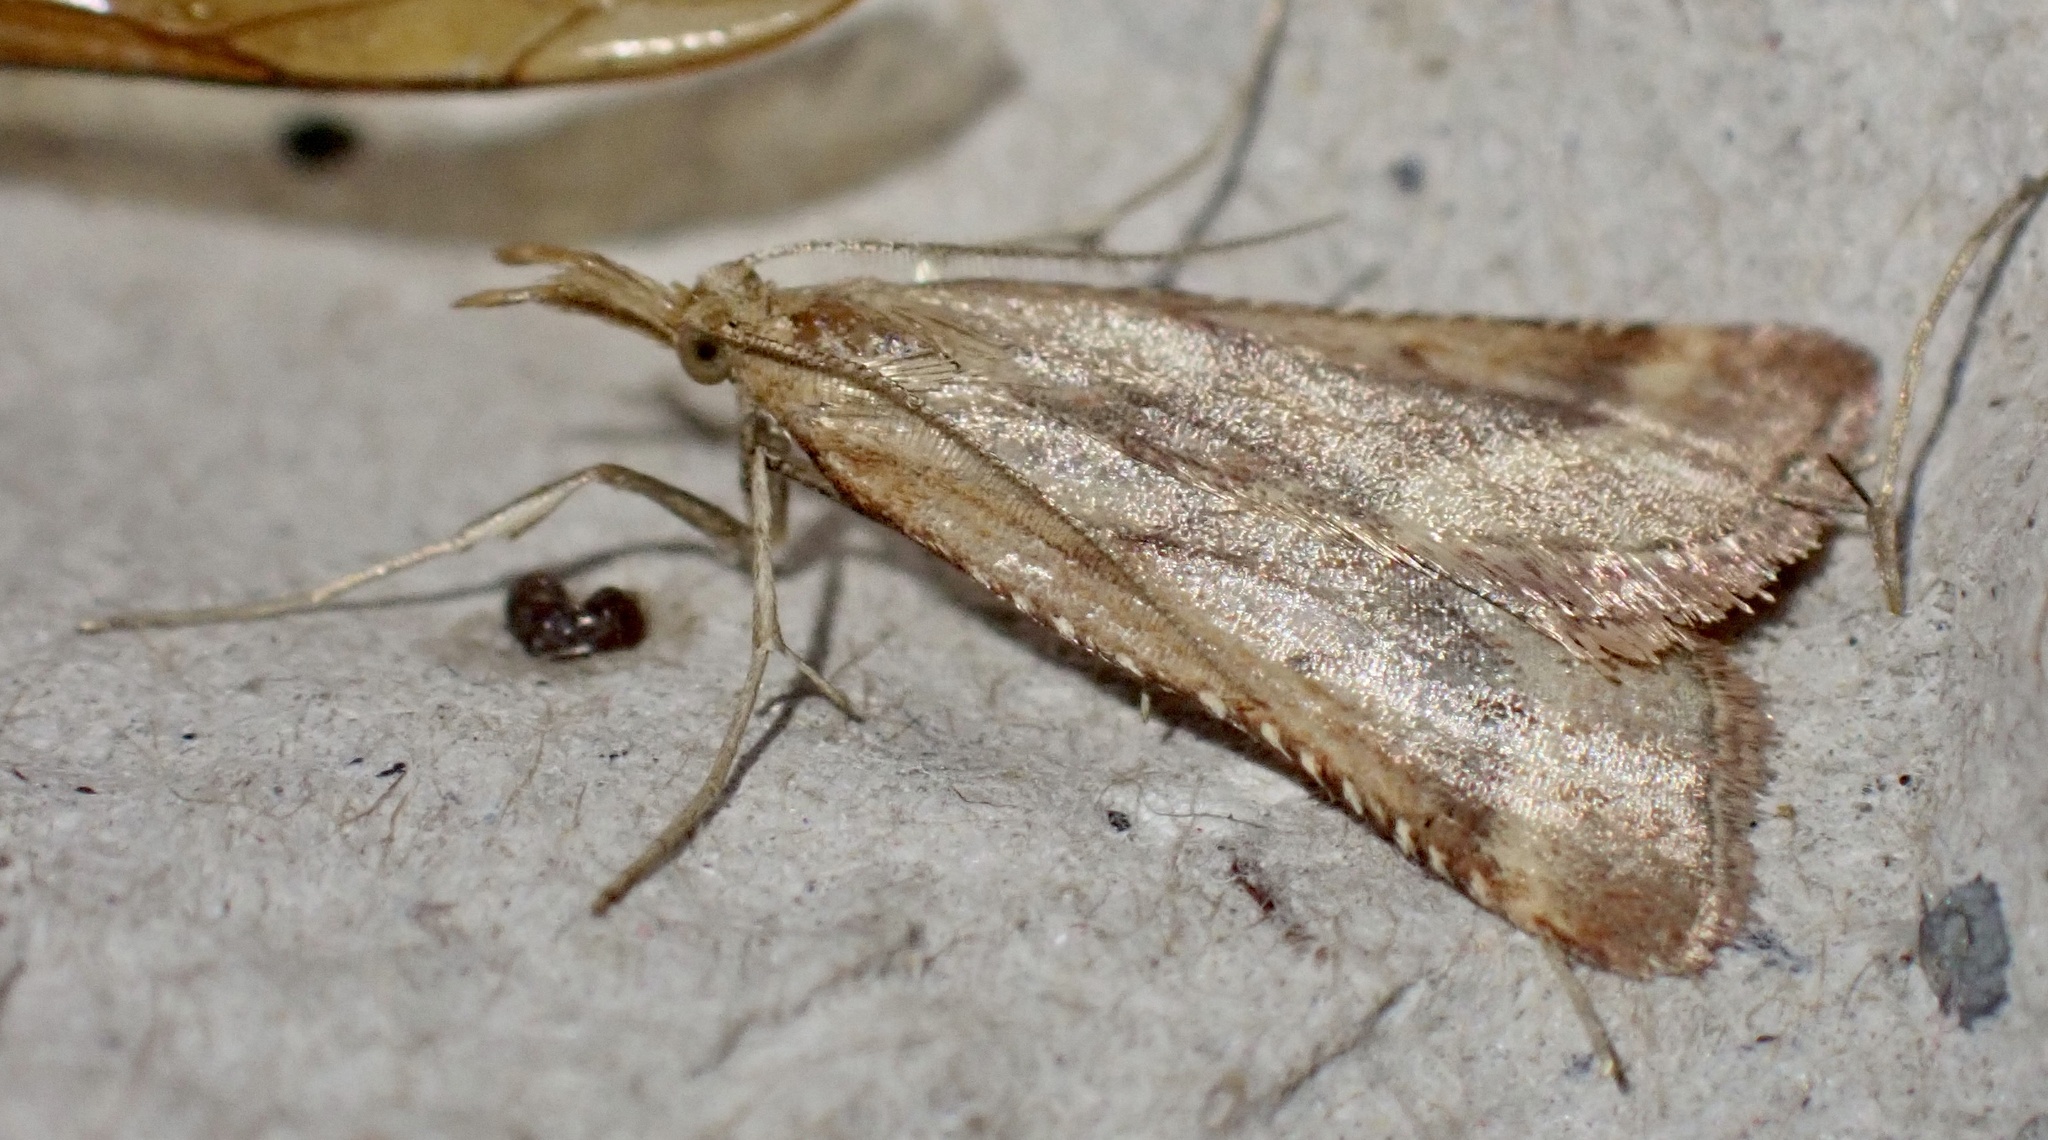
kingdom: Animalia
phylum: Arthropoda
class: Insecta
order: Lepidoptera
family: Pyralidae
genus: Synaphe
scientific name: Synaphe punctalis
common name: Long-legged tabby
